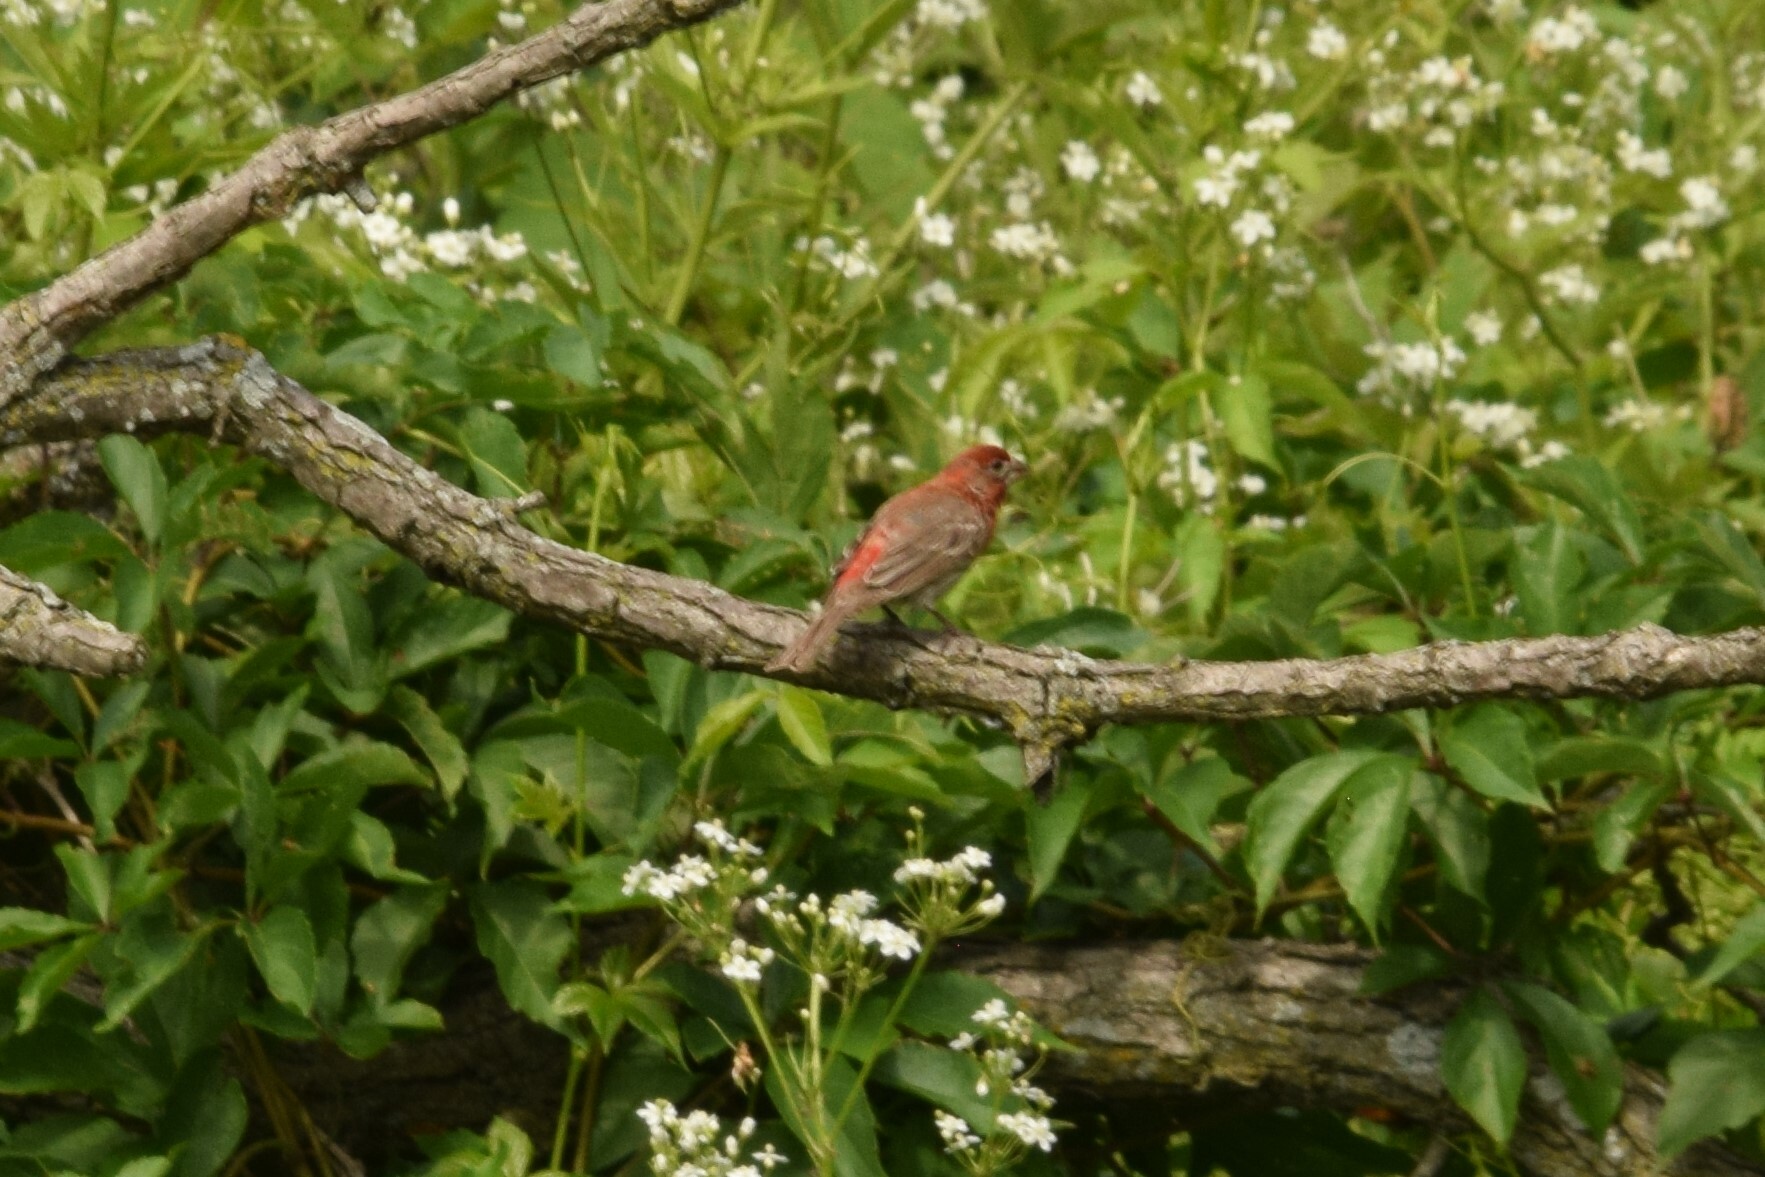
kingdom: Animalia
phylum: Chordata
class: Aves
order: Passeriformes
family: Fringillidae
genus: Haemorhous
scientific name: Haemorhous mexicanus
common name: House finch
